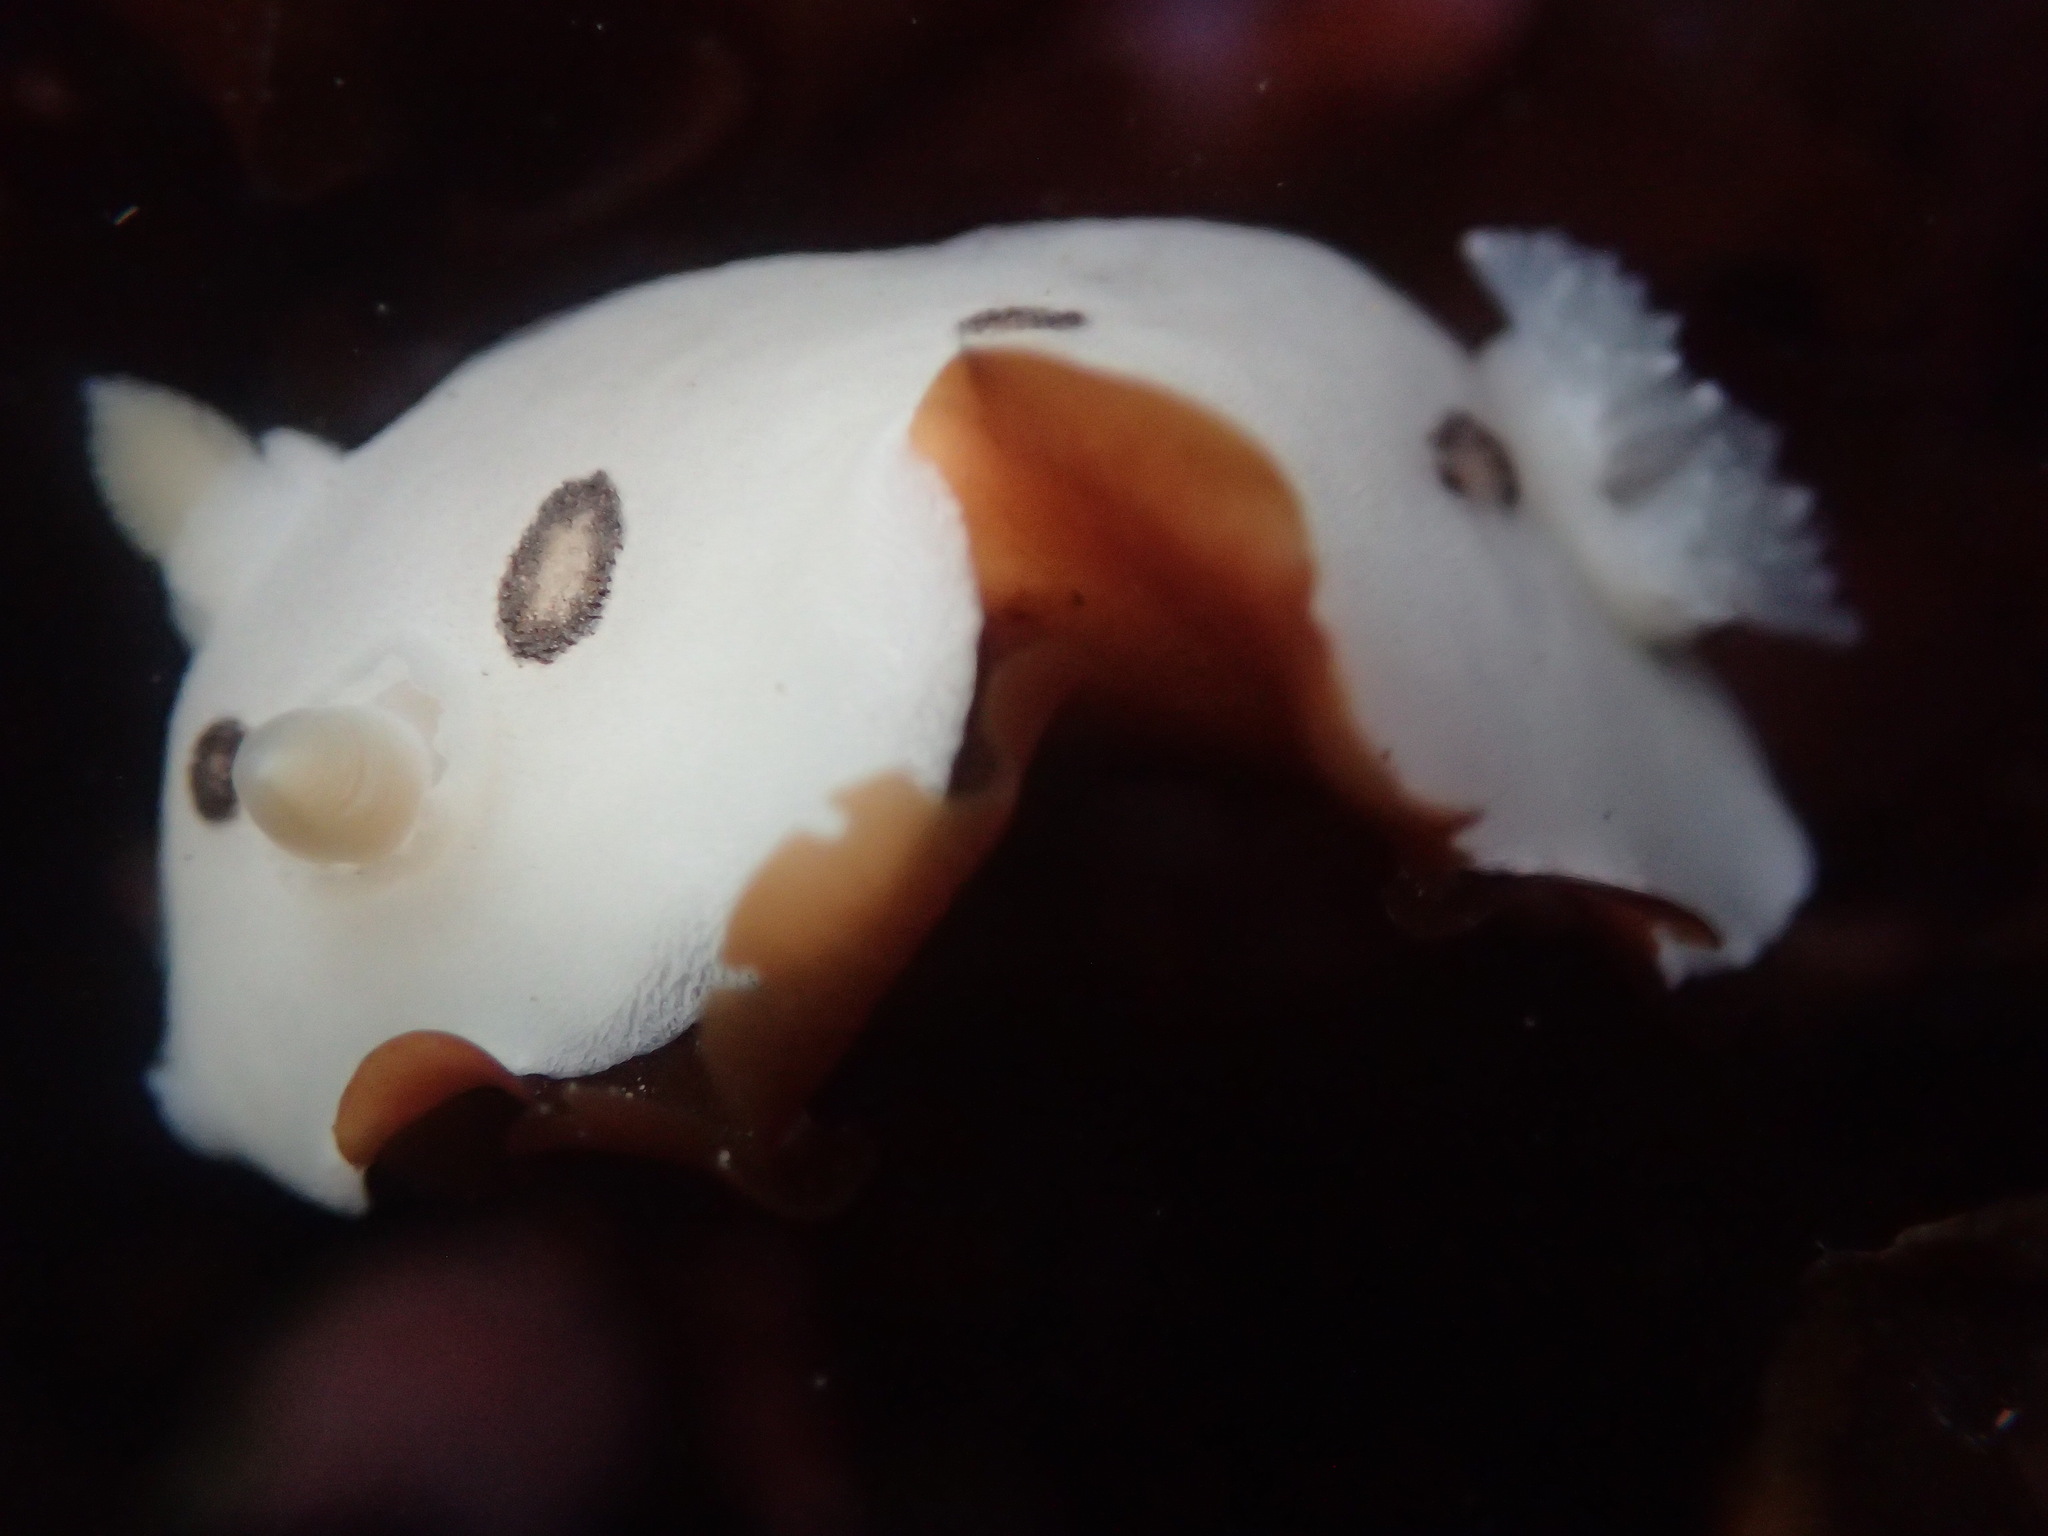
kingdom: Animalia
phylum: Mollusca
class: Gastropoda
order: Nudibranchia
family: Discodorididae
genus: Diaulula
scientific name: Diaulula sandiegensis
